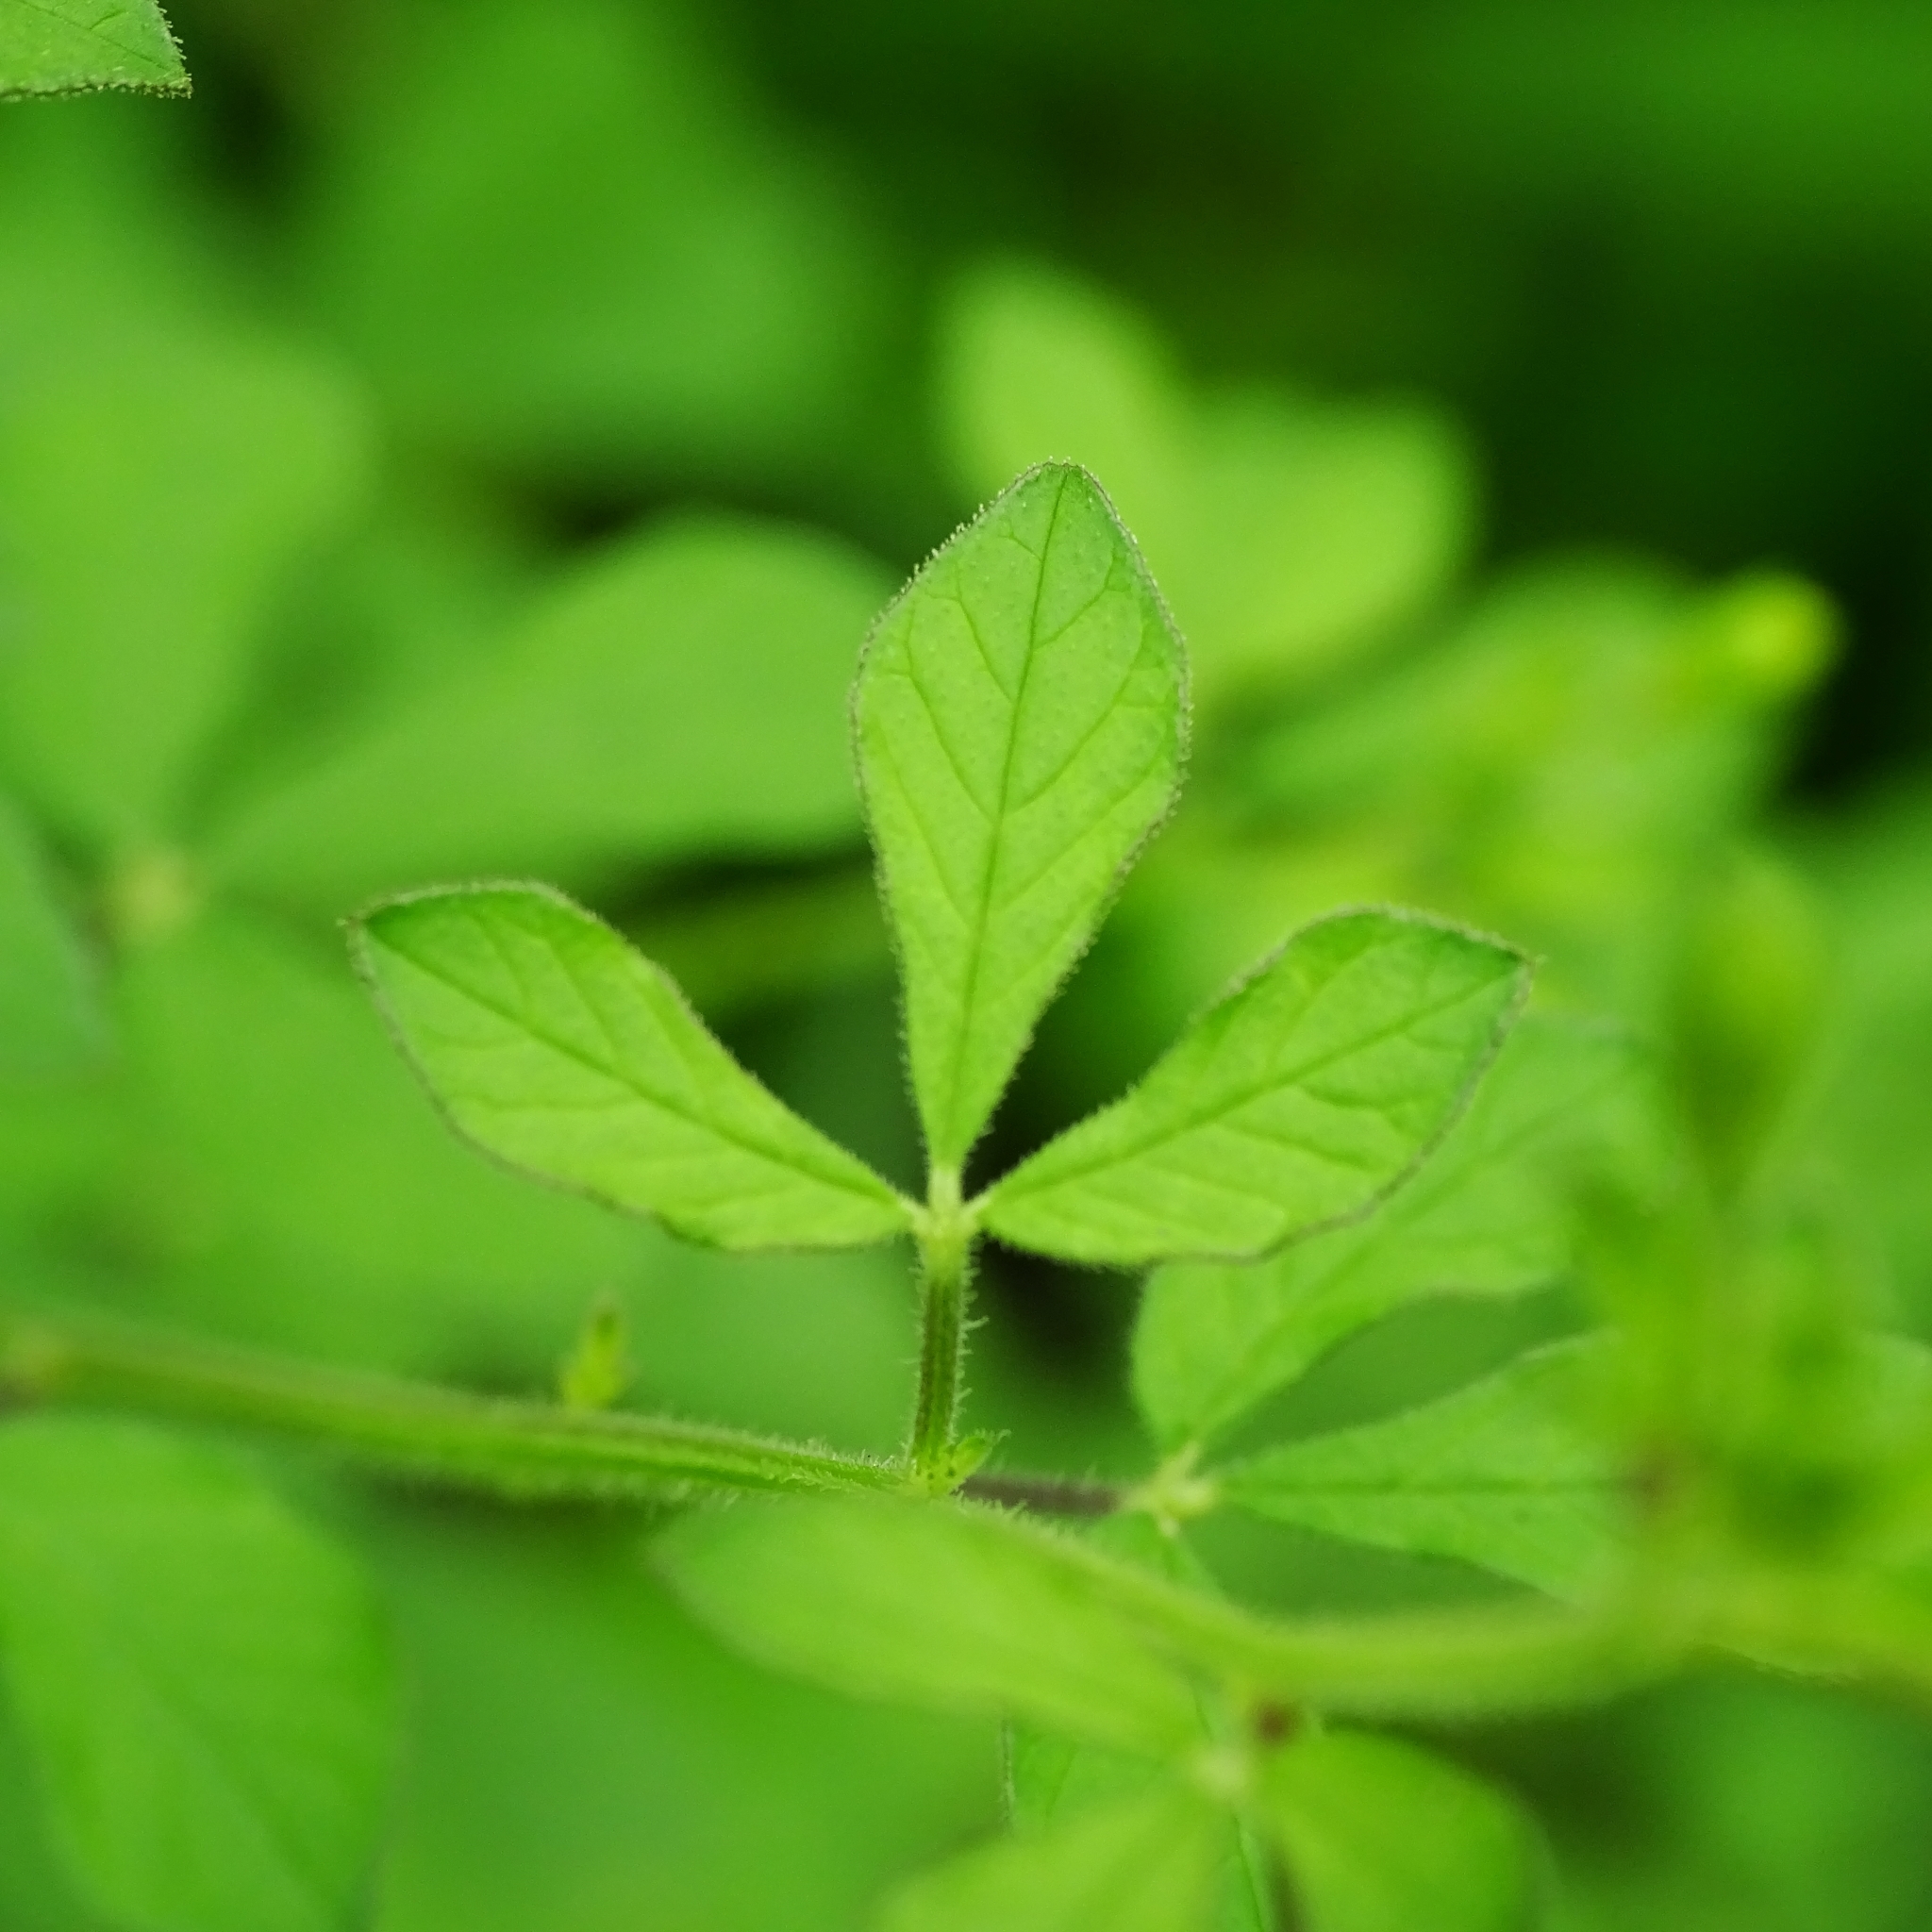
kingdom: Plantae
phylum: Tracheophyta
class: Magnoliopsida
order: Brassicales
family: Cleomaceae
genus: Arivela
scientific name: Arivela viscosa
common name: Asian spiderflower
